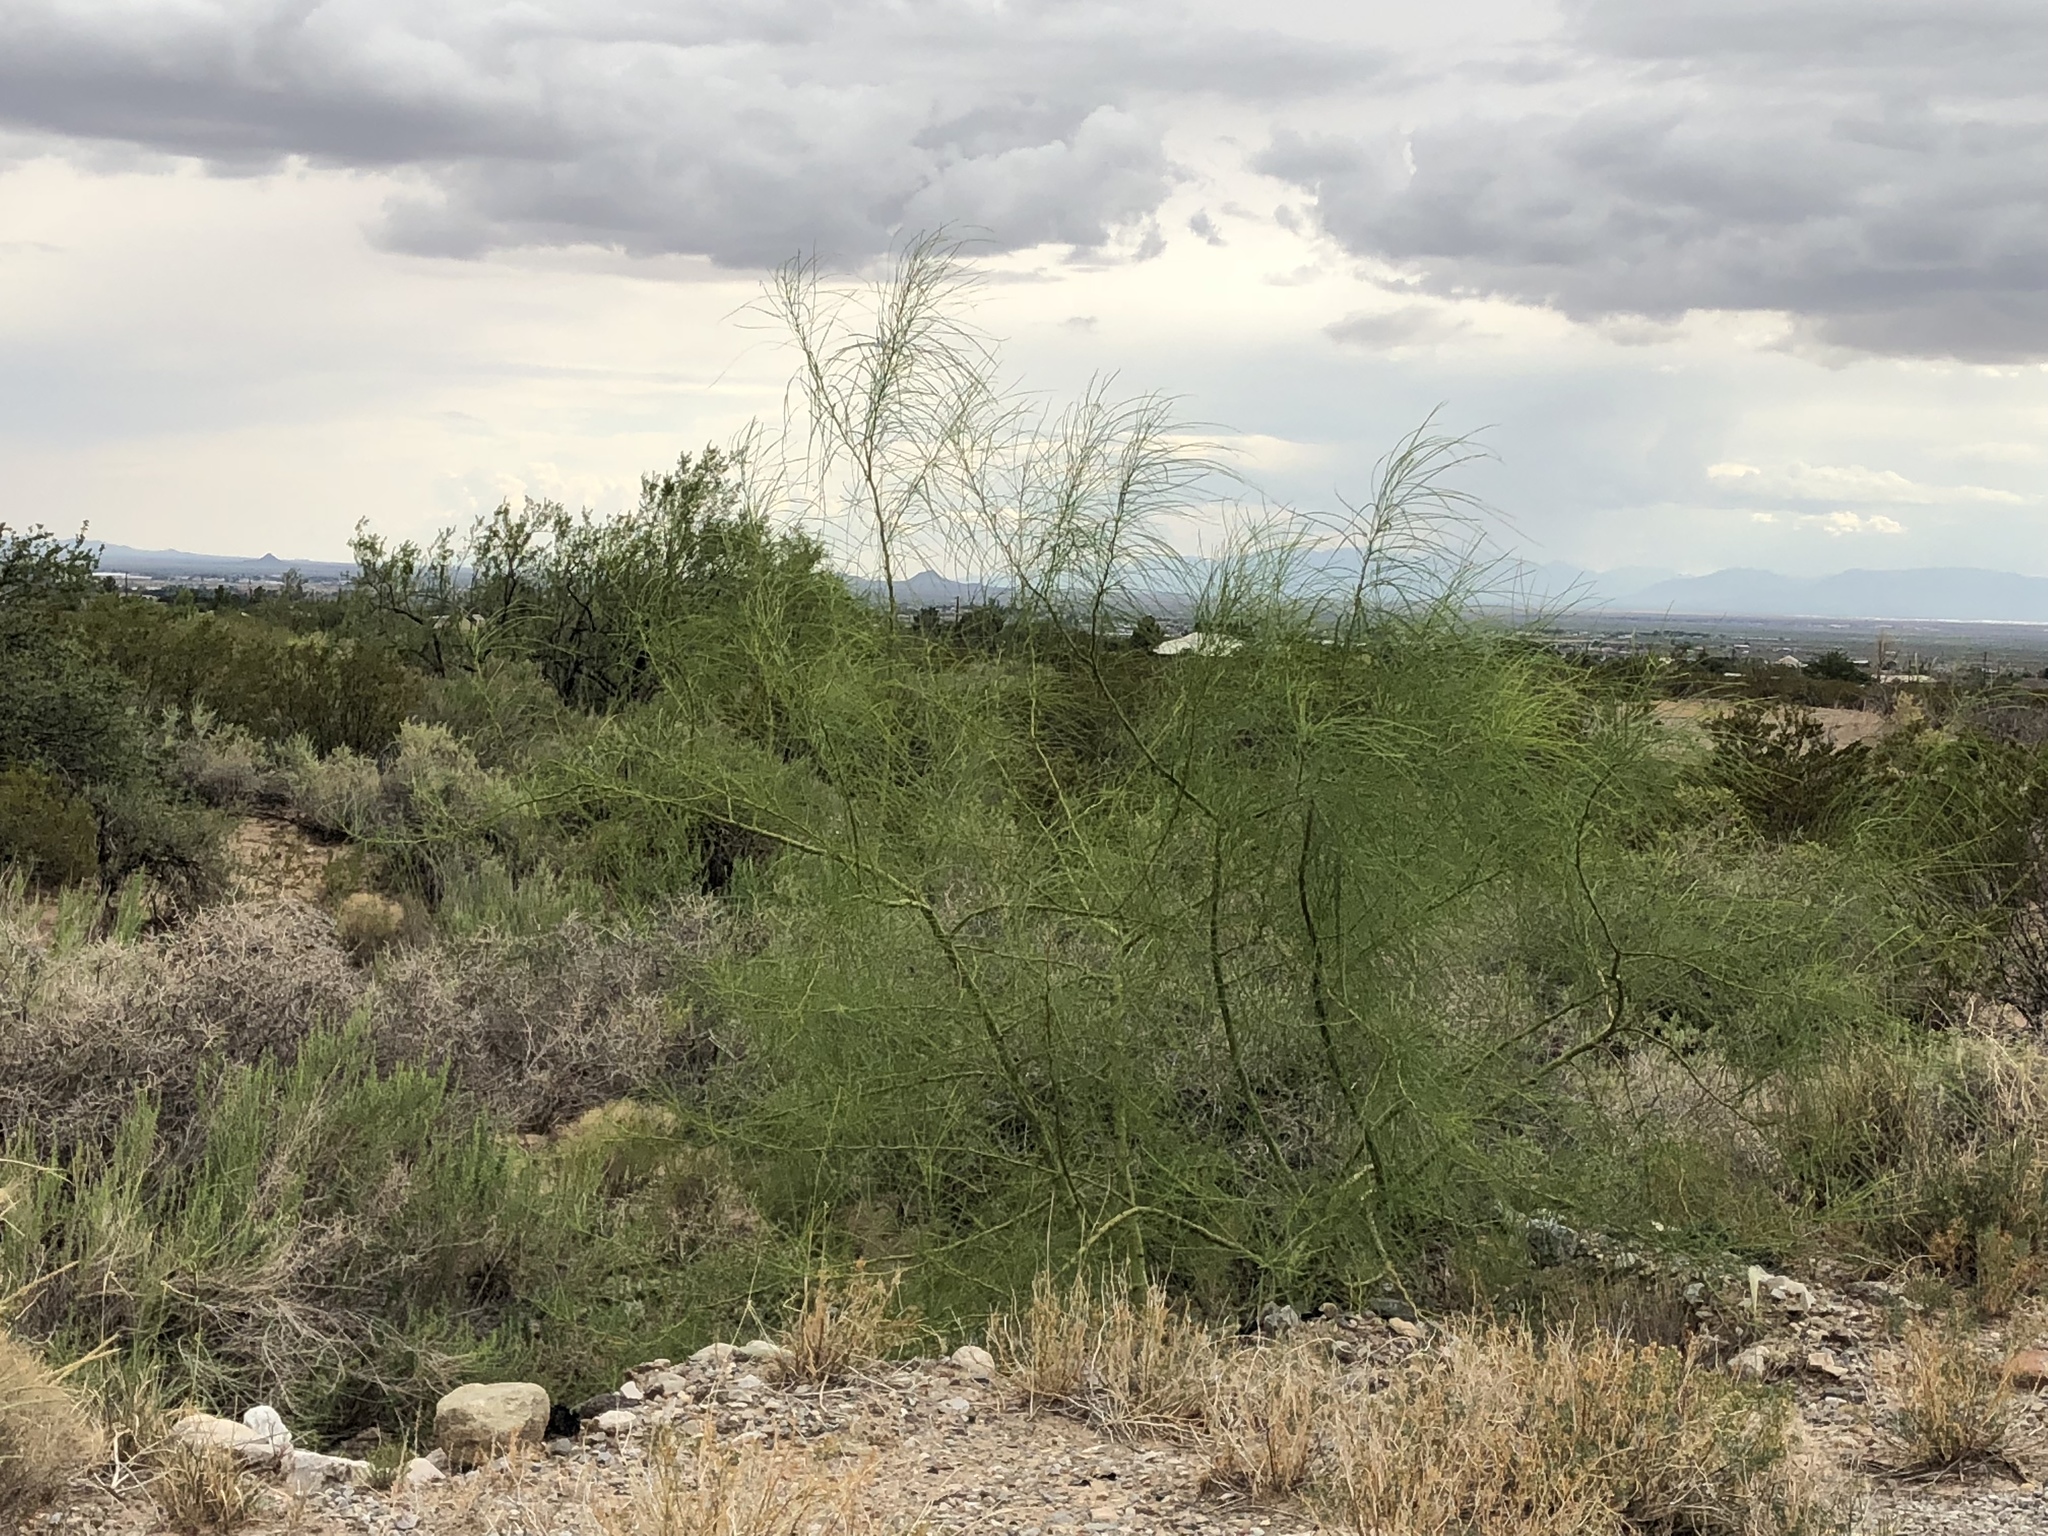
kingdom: Plantae
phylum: Tracheophyta
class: Magnoliopsida
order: Fabales
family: Fabaceae
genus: Parkinsonia
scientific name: Parkinsonia aculeata
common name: Jerusalem thorn
